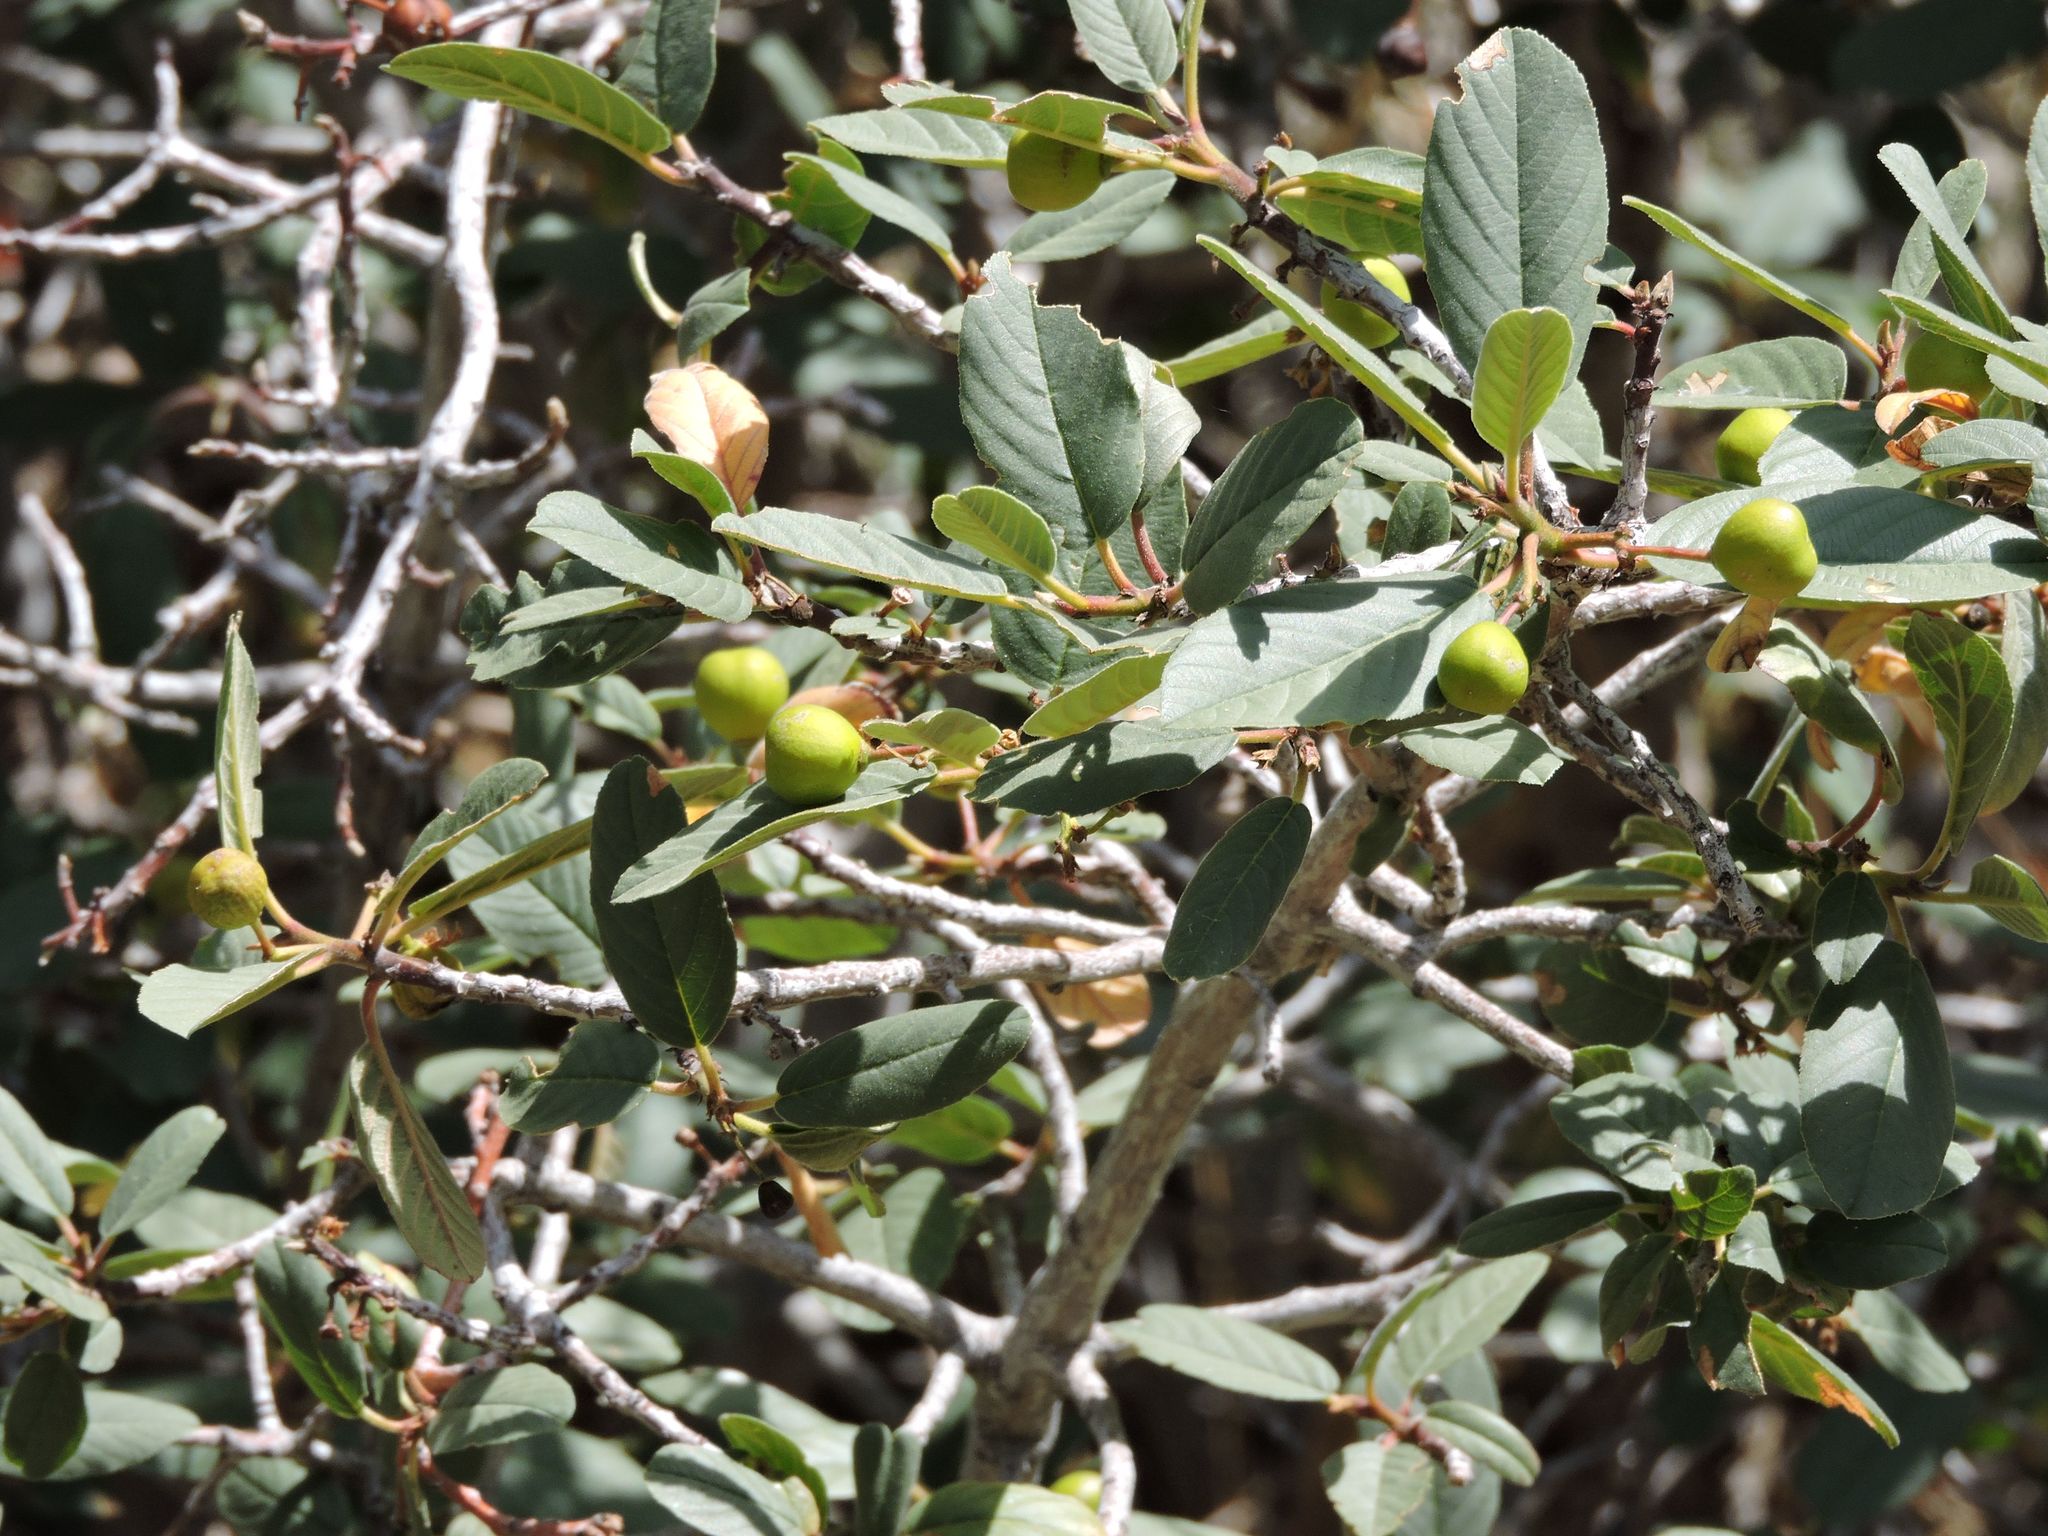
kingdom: Plantae
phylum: Tracheophyta
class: Magnoliopsida
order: Rosales
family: Rhamnaceae
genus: Frangula
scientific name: Frangula californica
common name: California buckthorn
